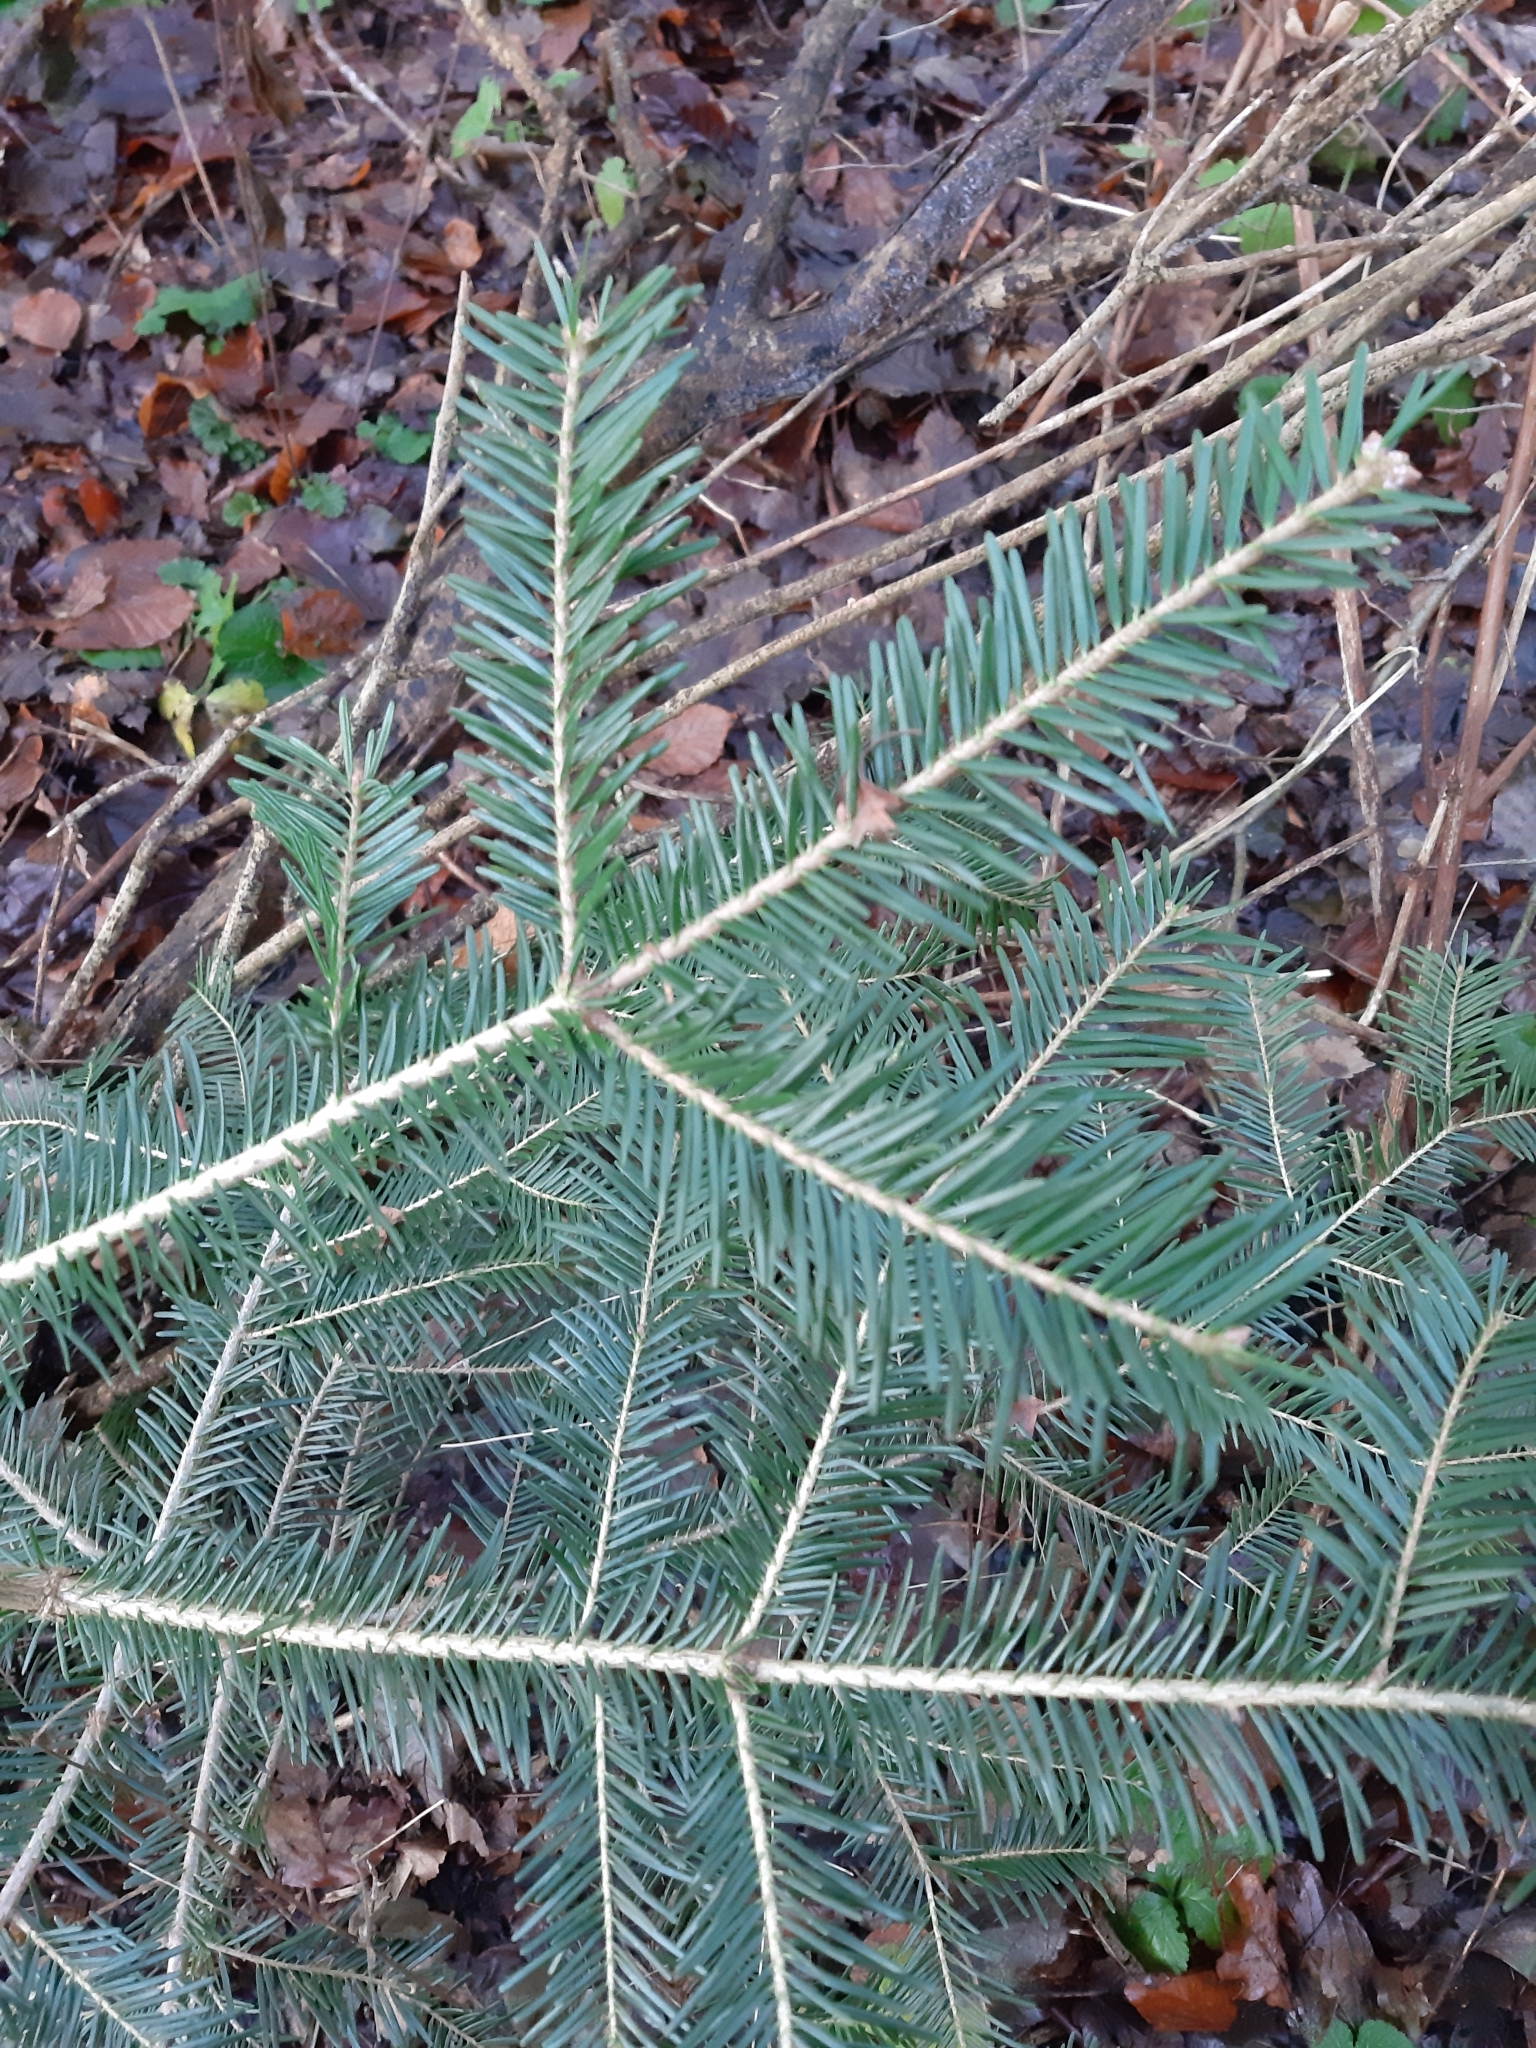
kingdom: Plantae
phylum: Tracheophyta
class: Pinopsida
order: Pinales
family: Pinaceae
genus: Abies
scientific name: Abies alba
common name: Silver fir
